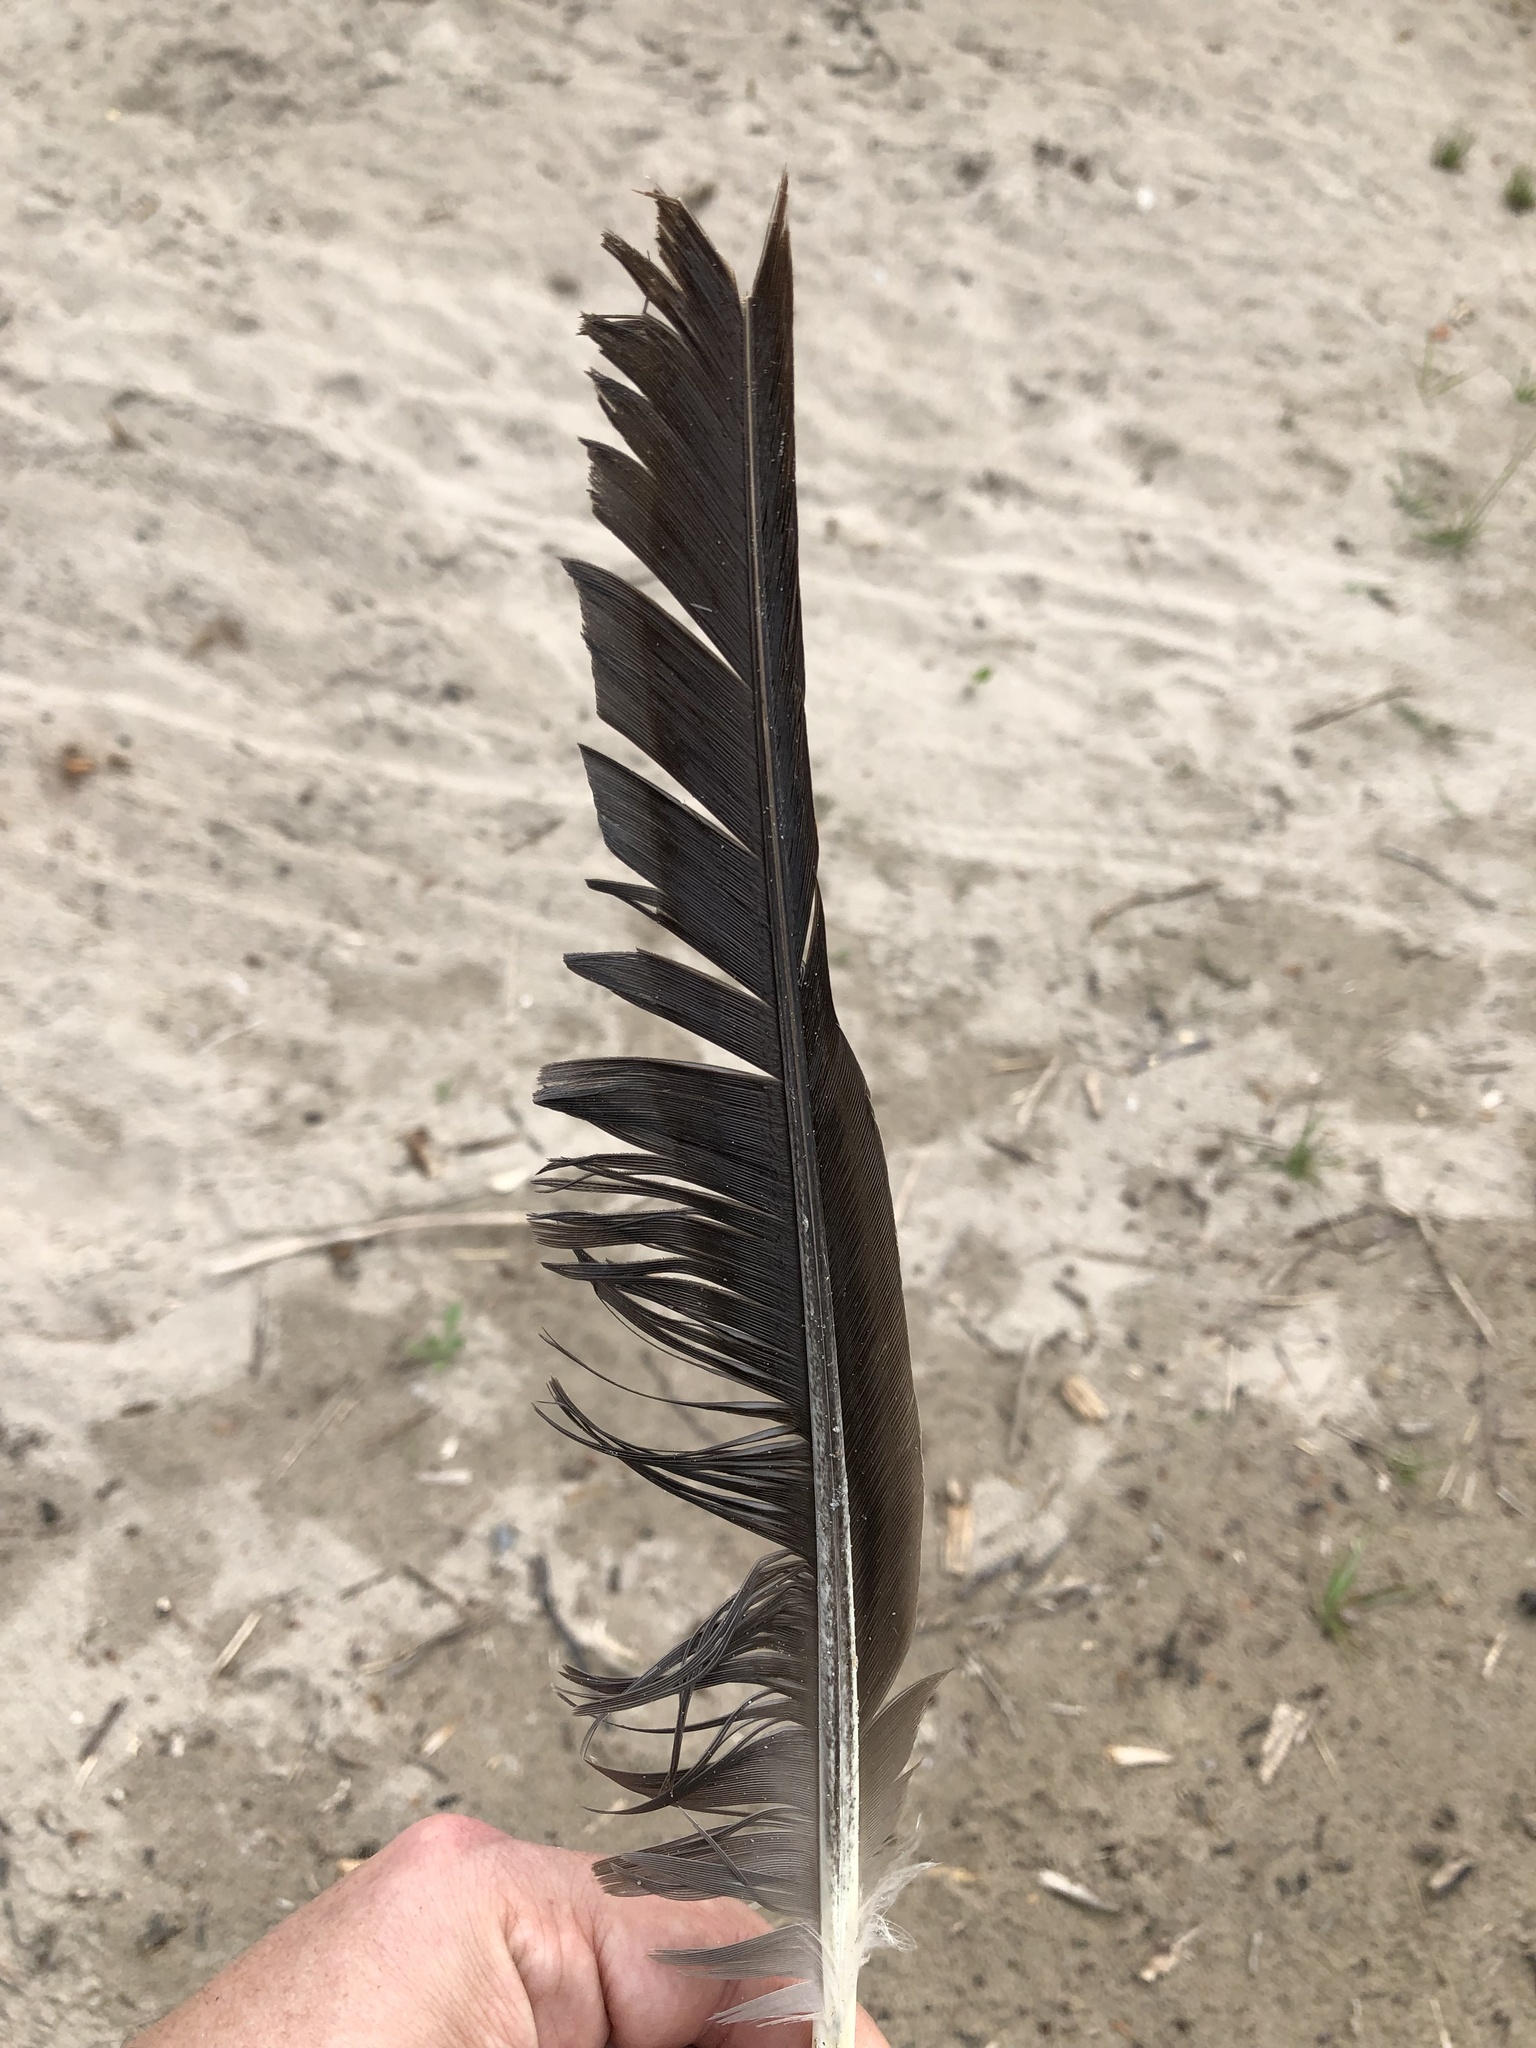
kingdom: Animalia
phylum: Chordata
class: Aves
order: Anseriformes
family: Anatidae
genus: Branta
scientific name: Branta canadensis
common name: Canada goose
